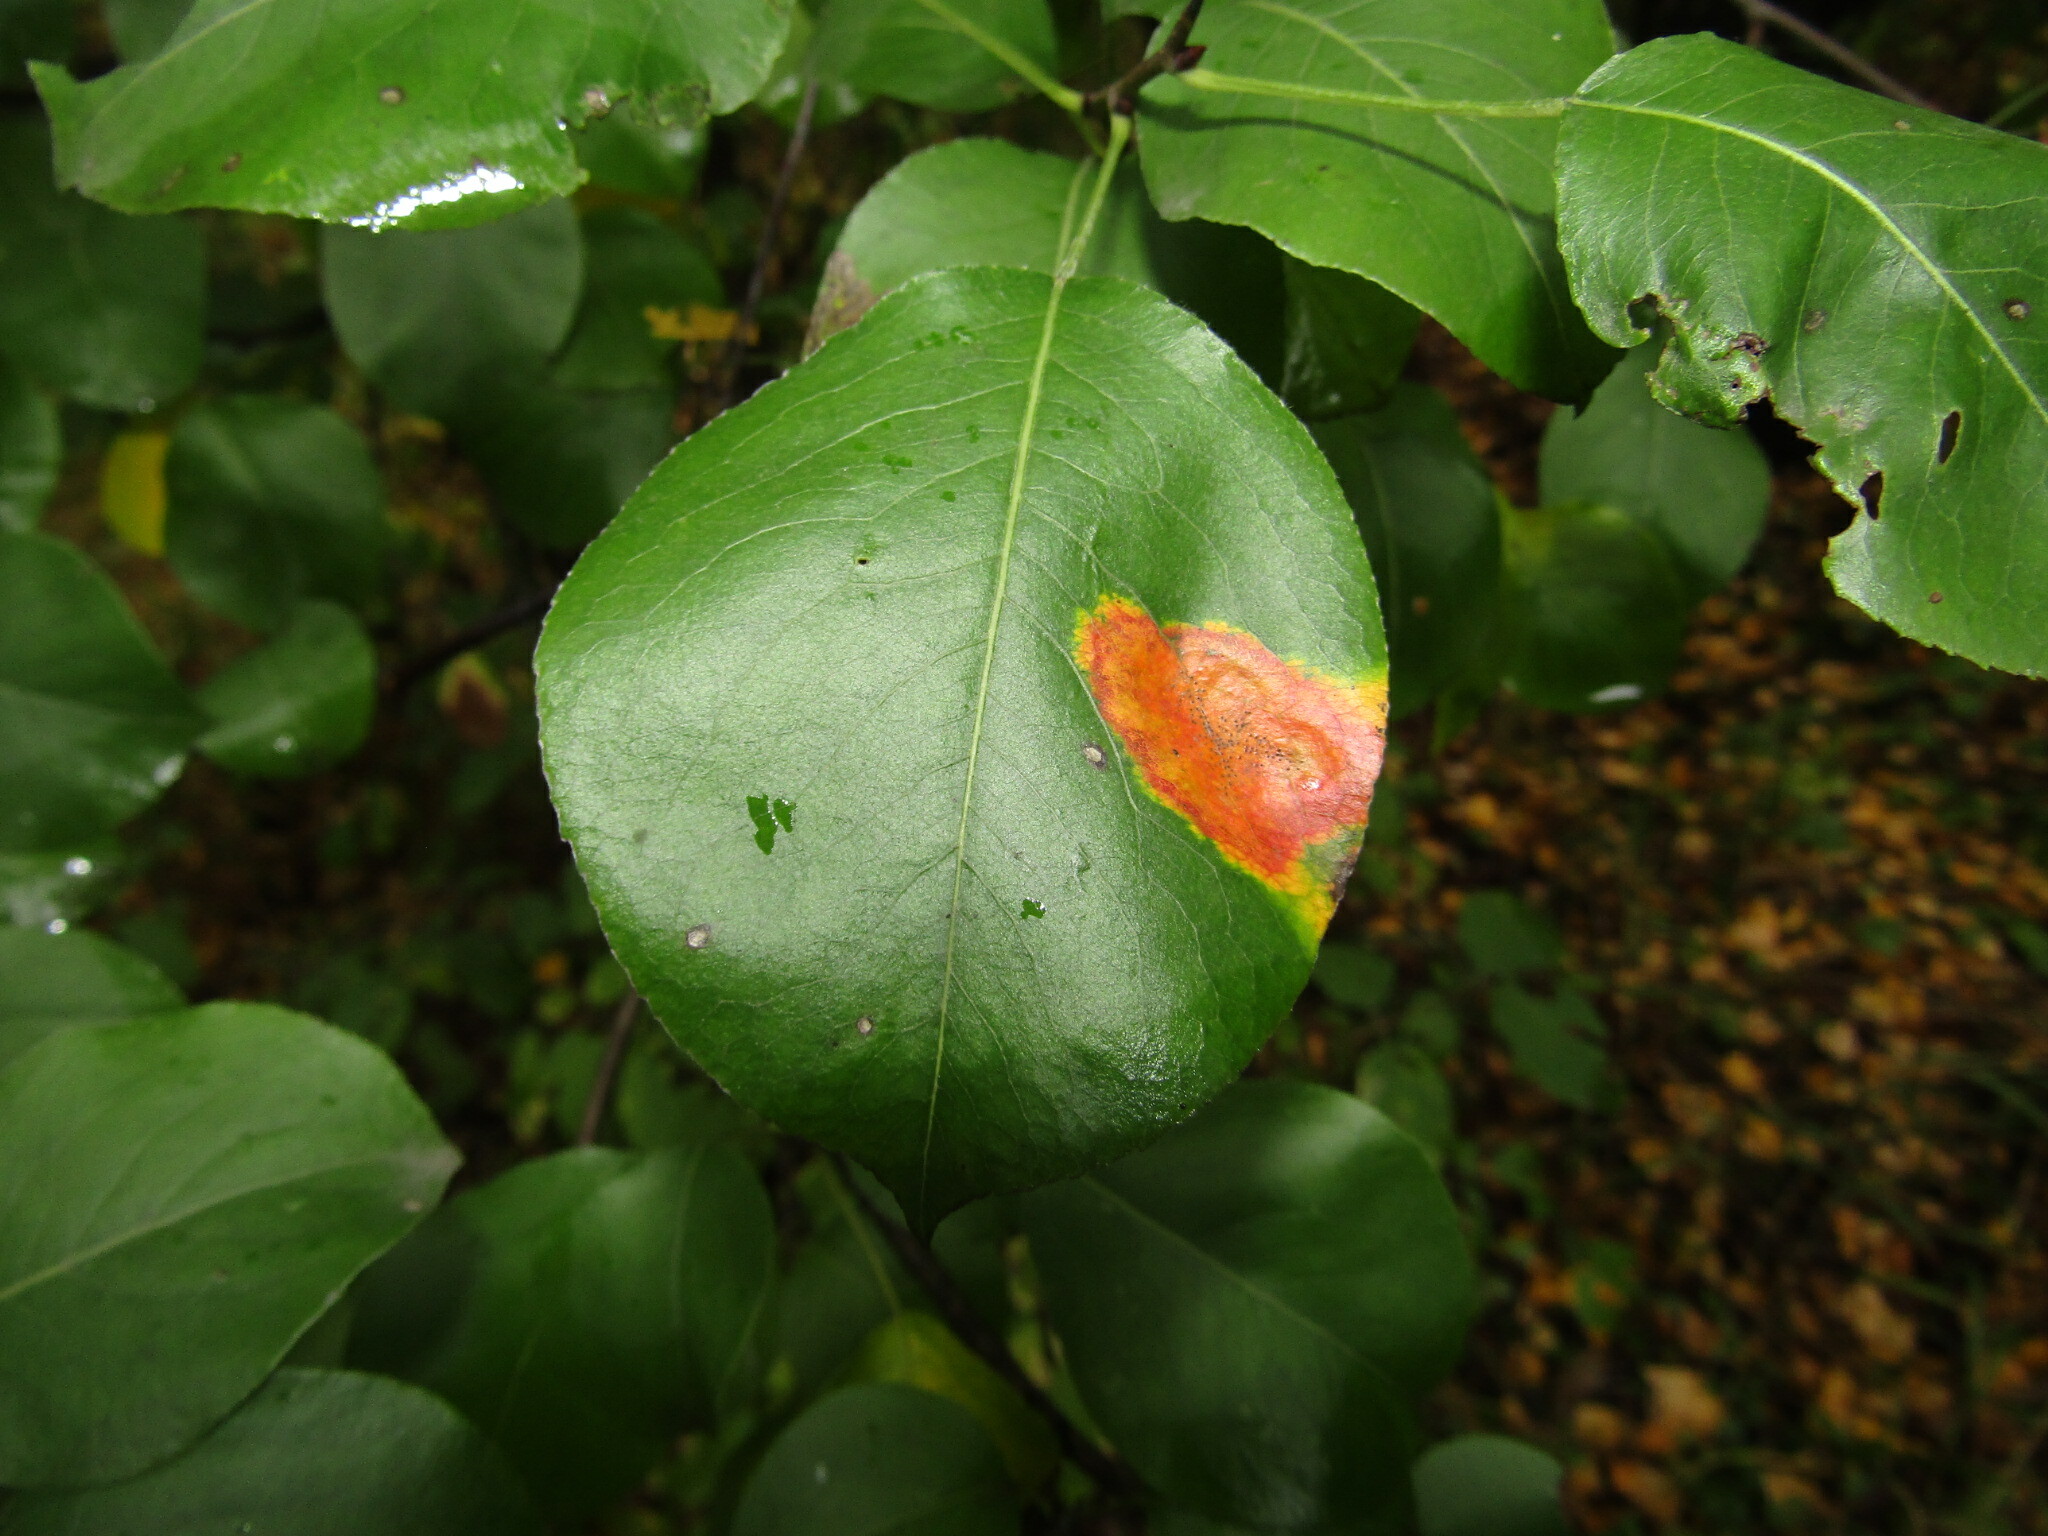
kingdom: Fungi
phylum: Basidiomycota
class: Pucciniomycetes
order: Pucciniales
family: Gymnosporangiaceae
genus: Gymnosporangium
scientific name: Gymnosporangium sabinae
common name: Pear trellis rust fungus
